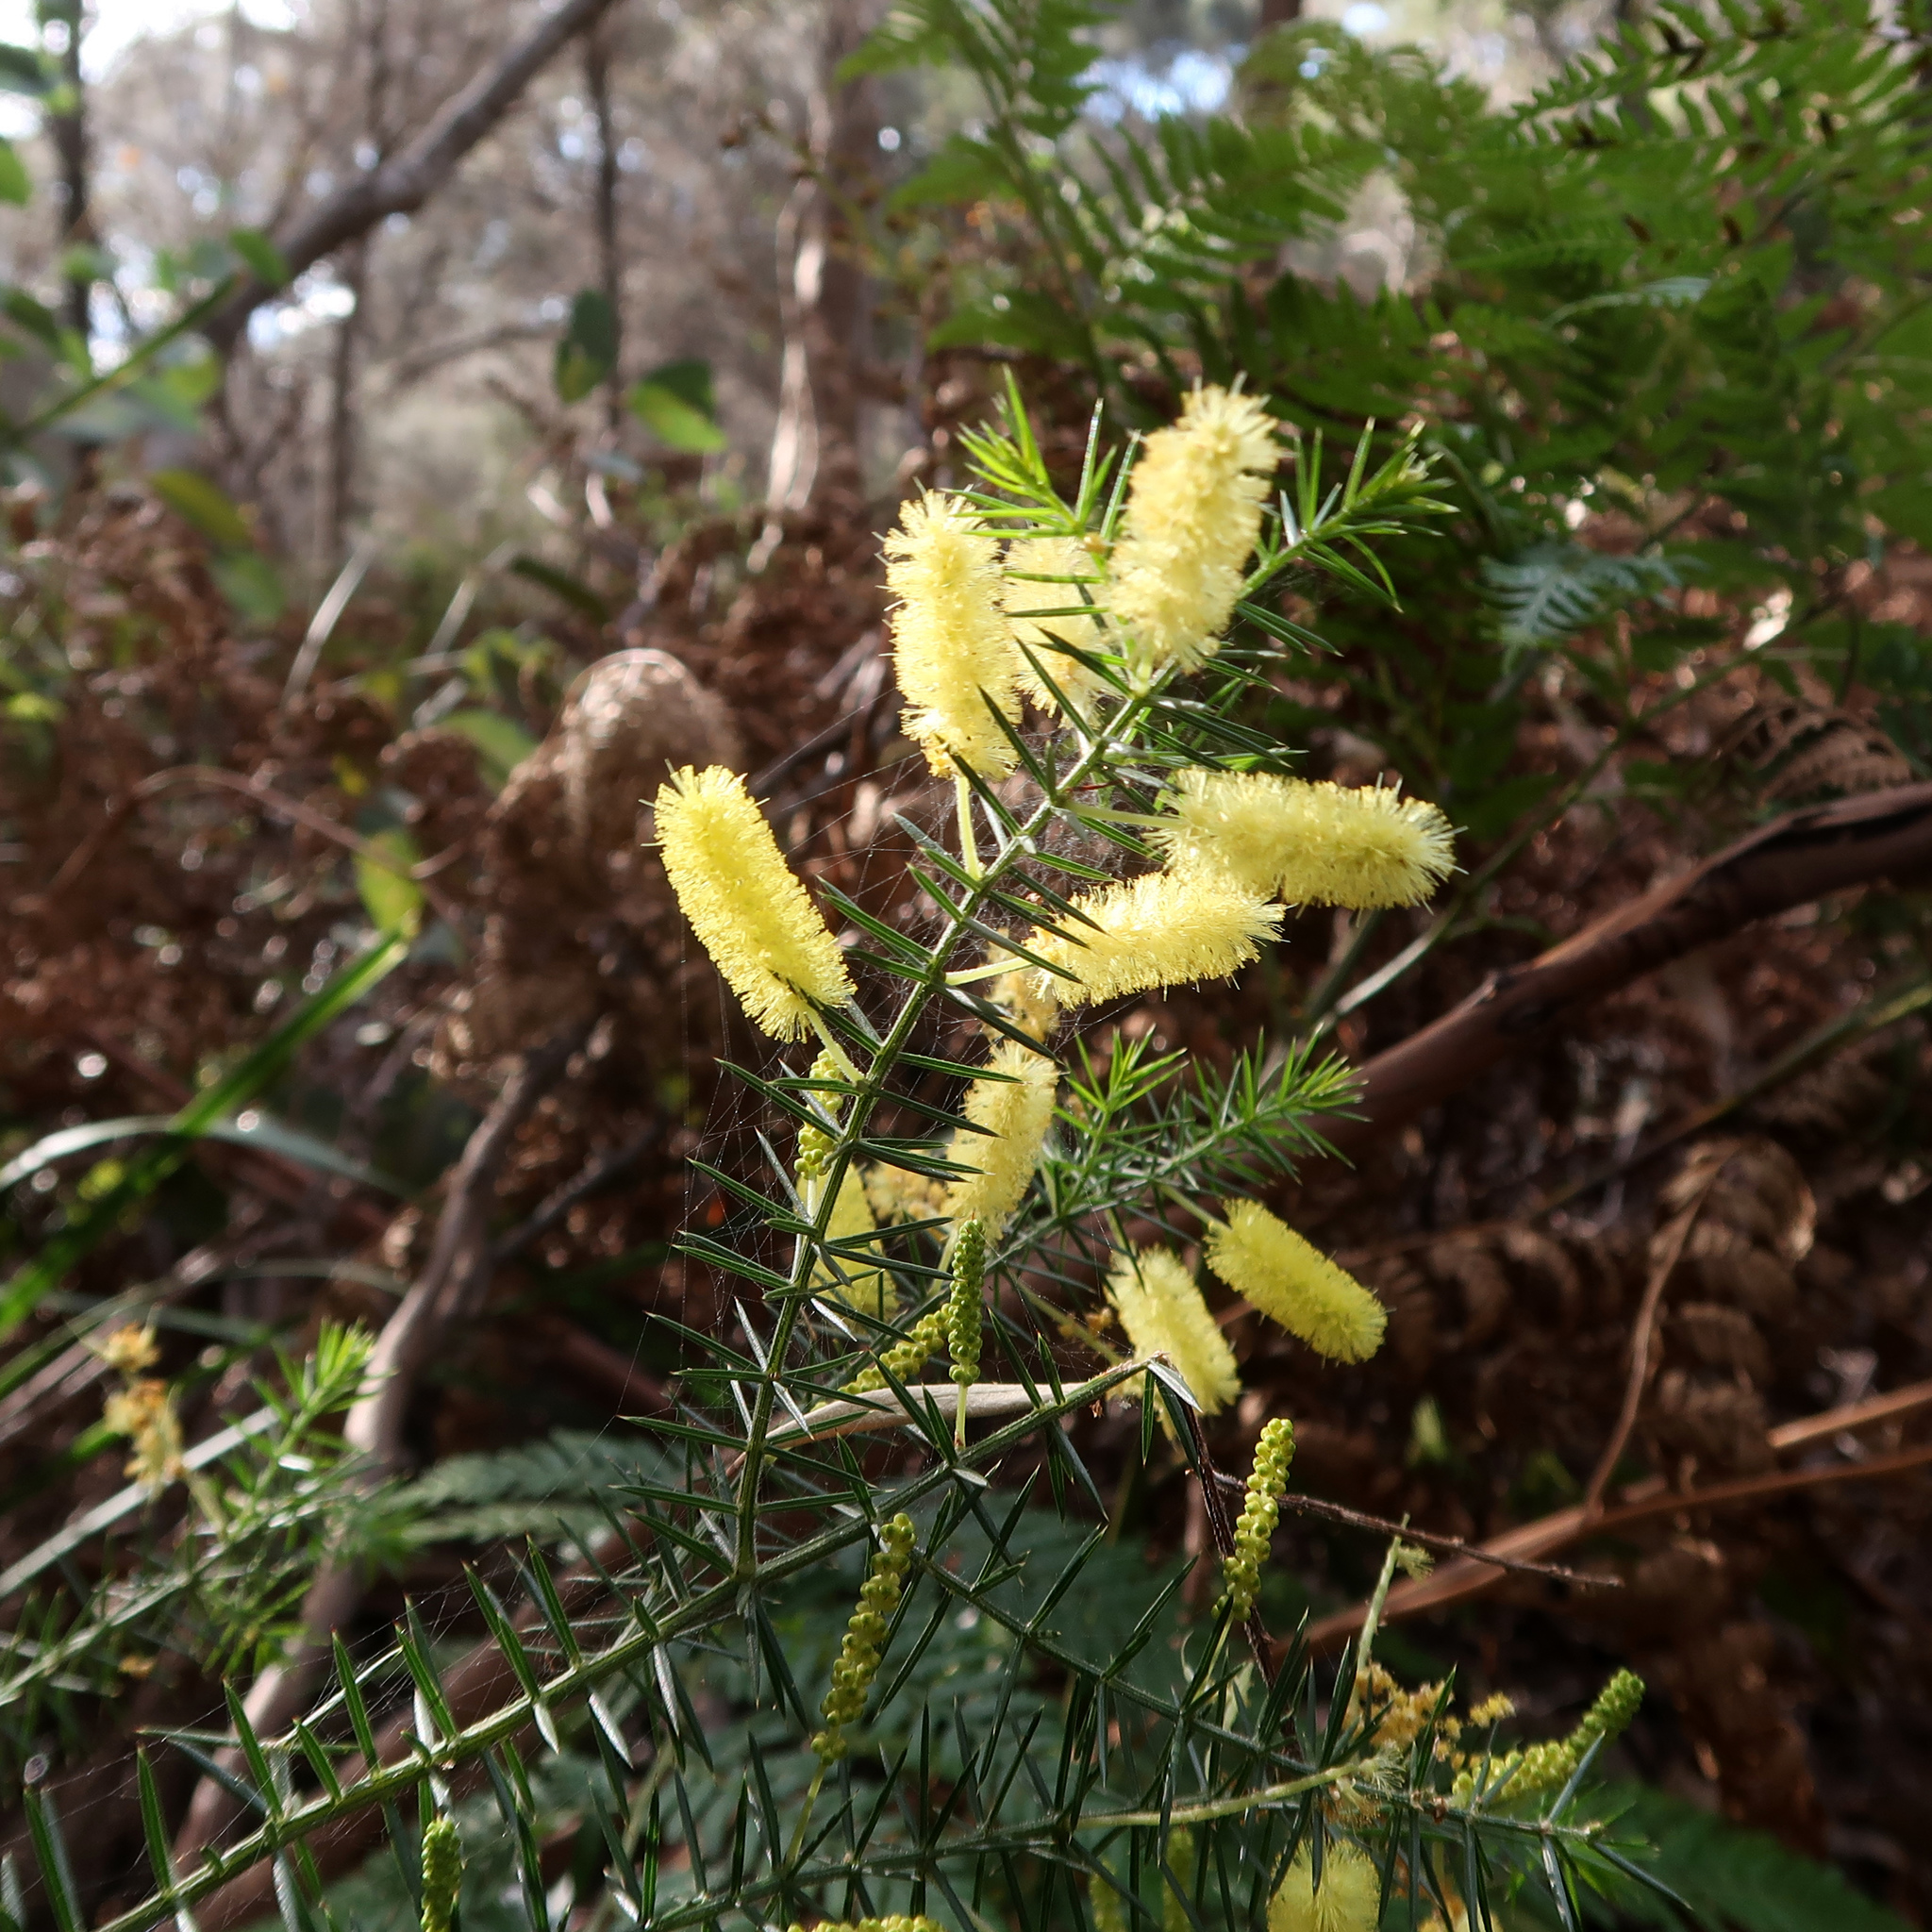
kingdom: Plantae
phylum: Tracheophyta
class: Magnoliopsida
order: Fabales
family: Fabaceae
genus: Acacia
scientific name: Acacia verticillata
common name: Prickly moses
